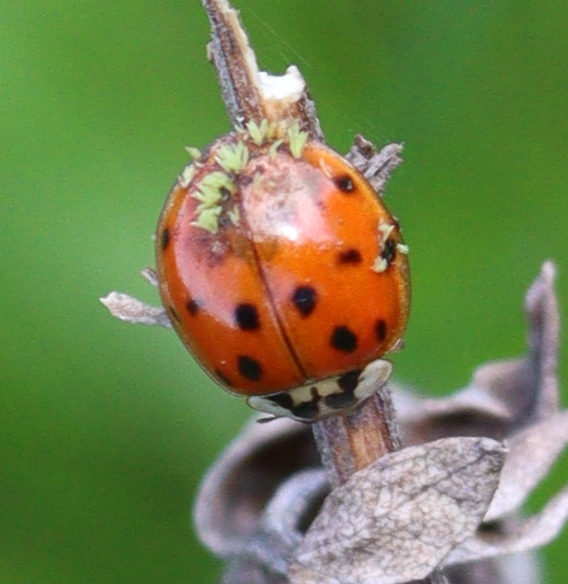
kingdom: Animalia
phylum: Arthropoda
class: Insecta
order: Coleoptera
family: Coccinellidae
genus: Harmonia
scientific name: Harmonia axyridis
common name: Harlequin ladybird
